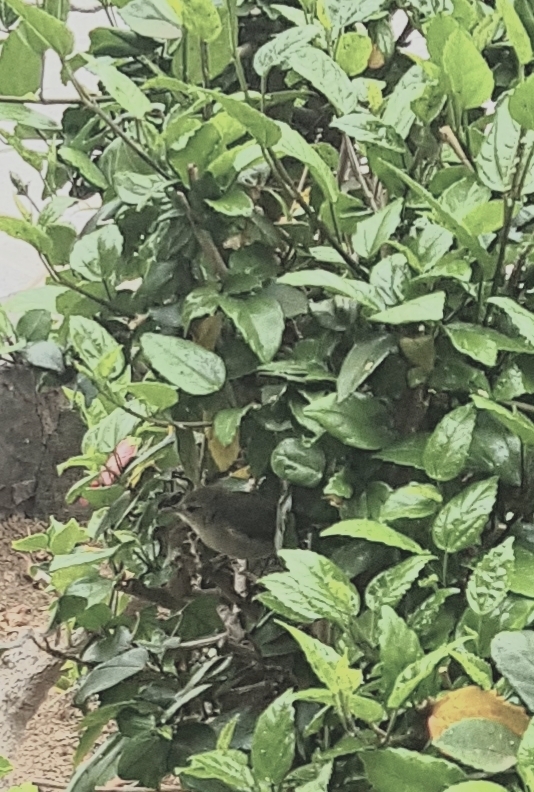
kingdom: Animalia
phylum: Chordata
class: Aves
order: Passeriformes
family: Phylloscopidae
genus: Phylloscopus
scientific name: Phylloscopus canariensis
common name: Canary islands chiffchaff
